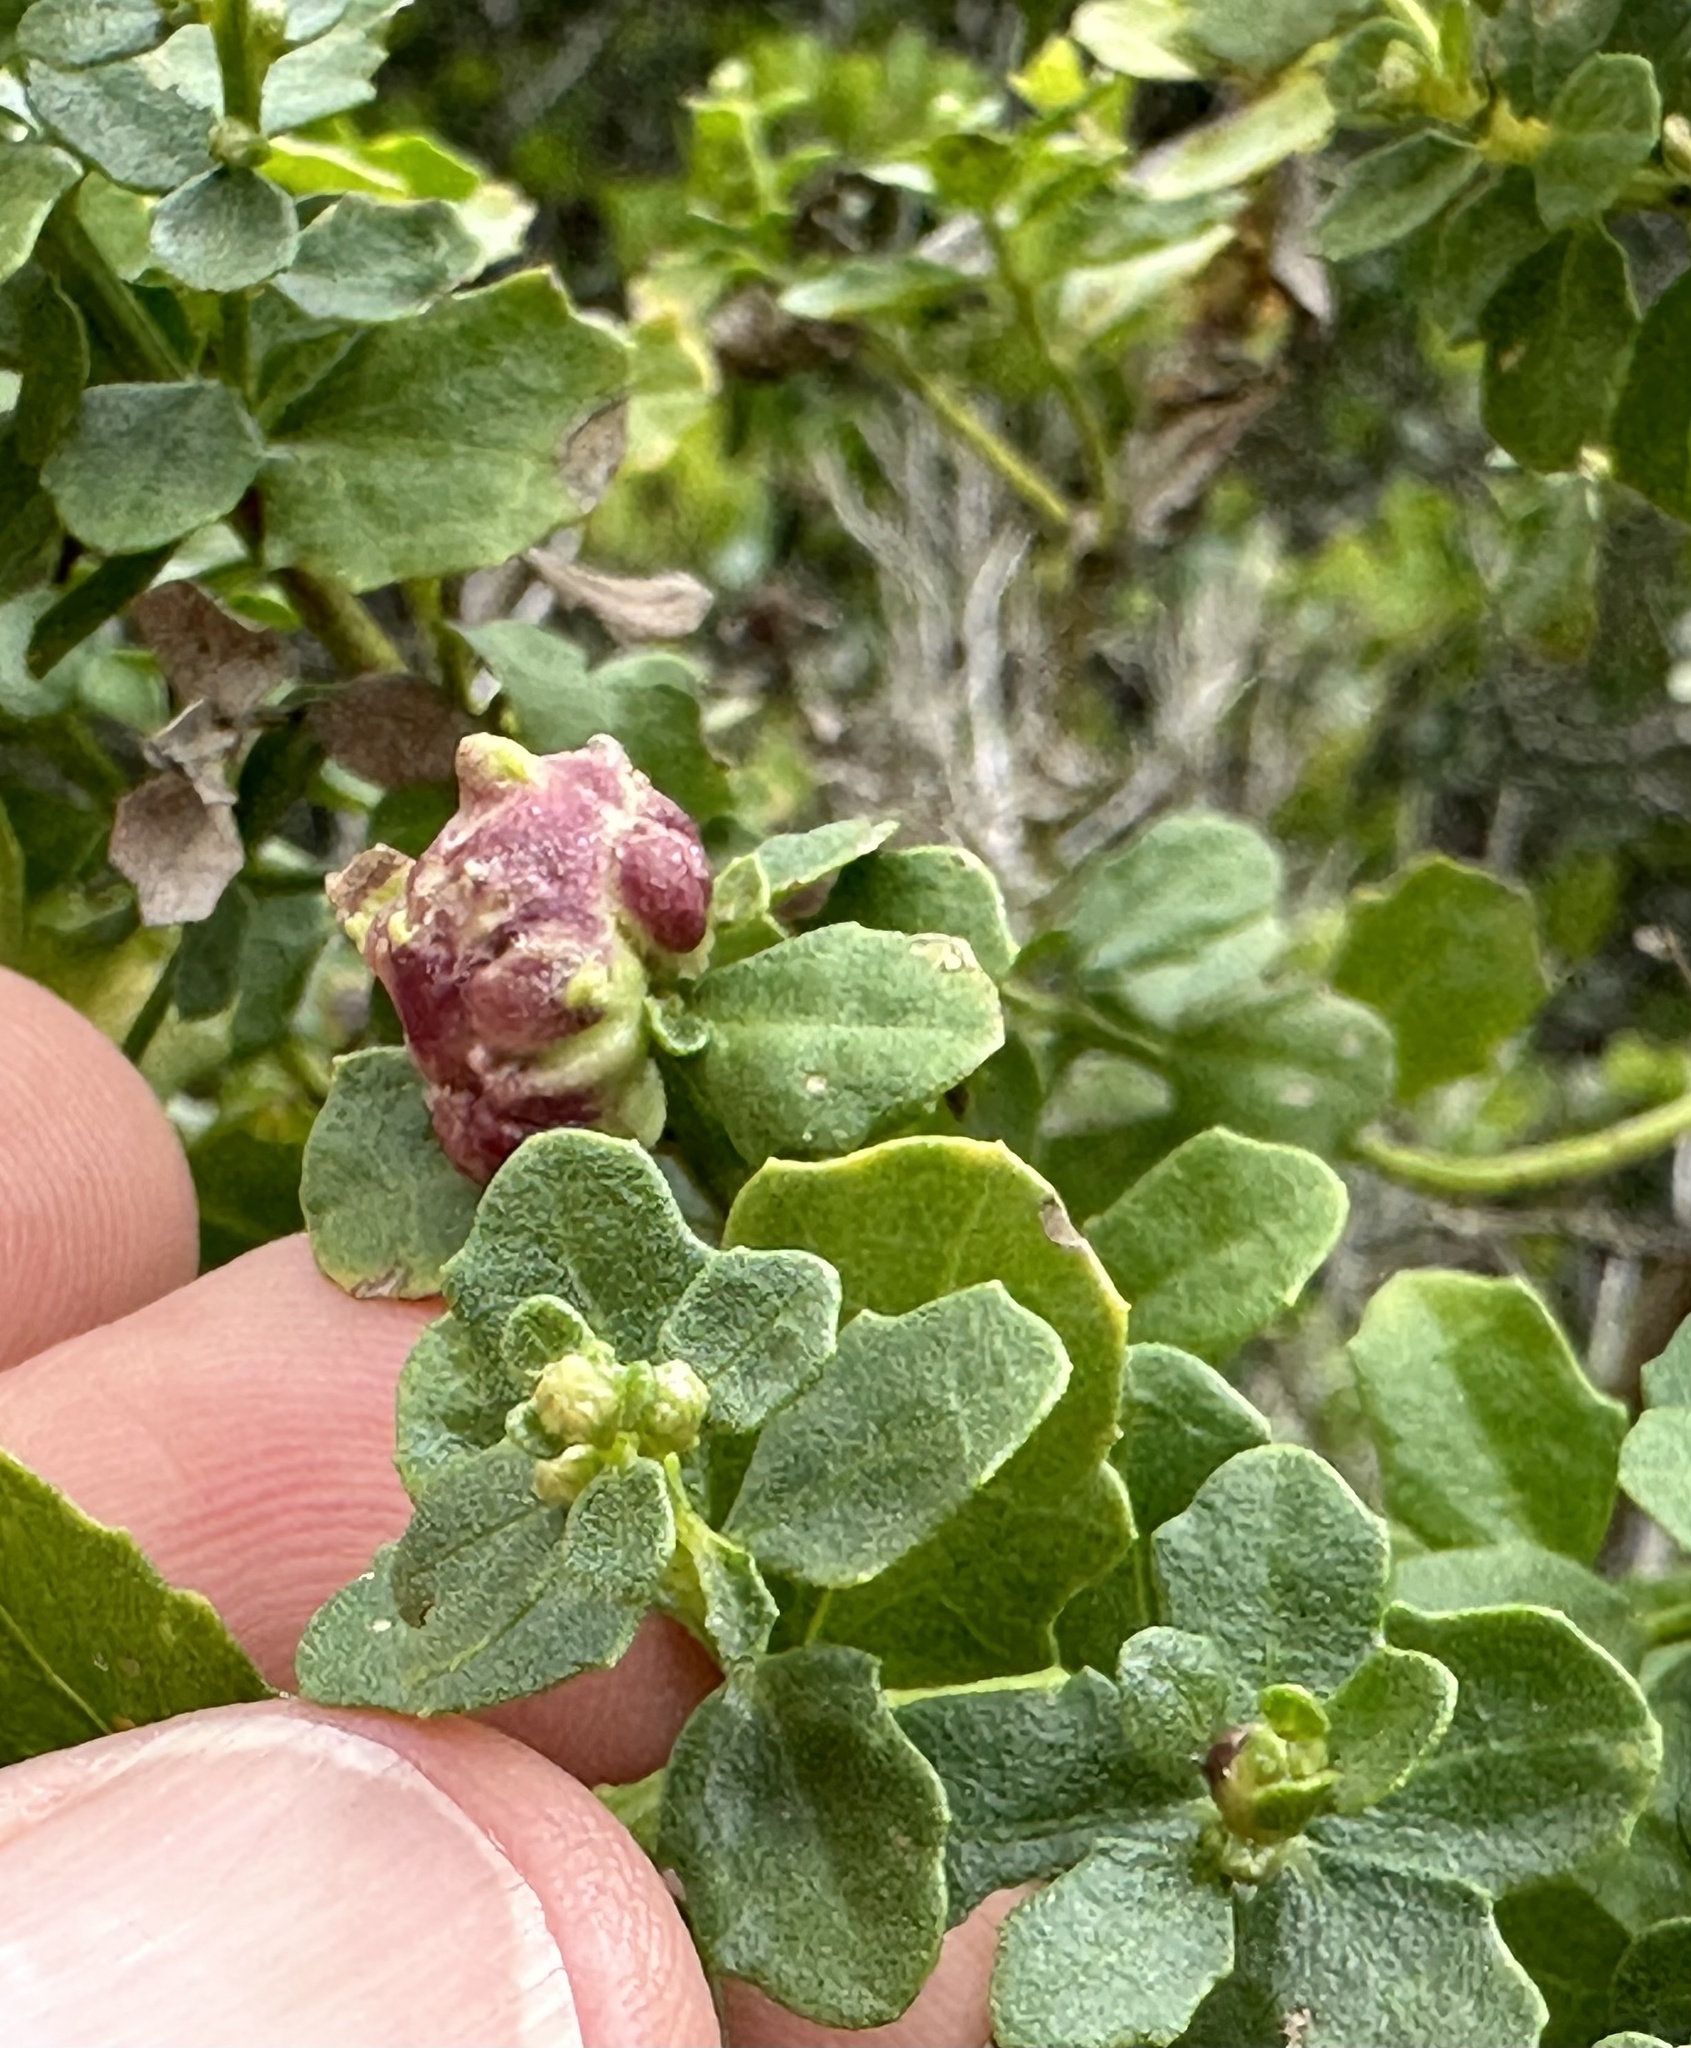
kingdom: Animalia
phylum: Arthropoda
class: Insecta
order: Diptera
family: Cecidomyiidae
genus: Rhopalomyia
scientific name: Rhopalomyia californica
